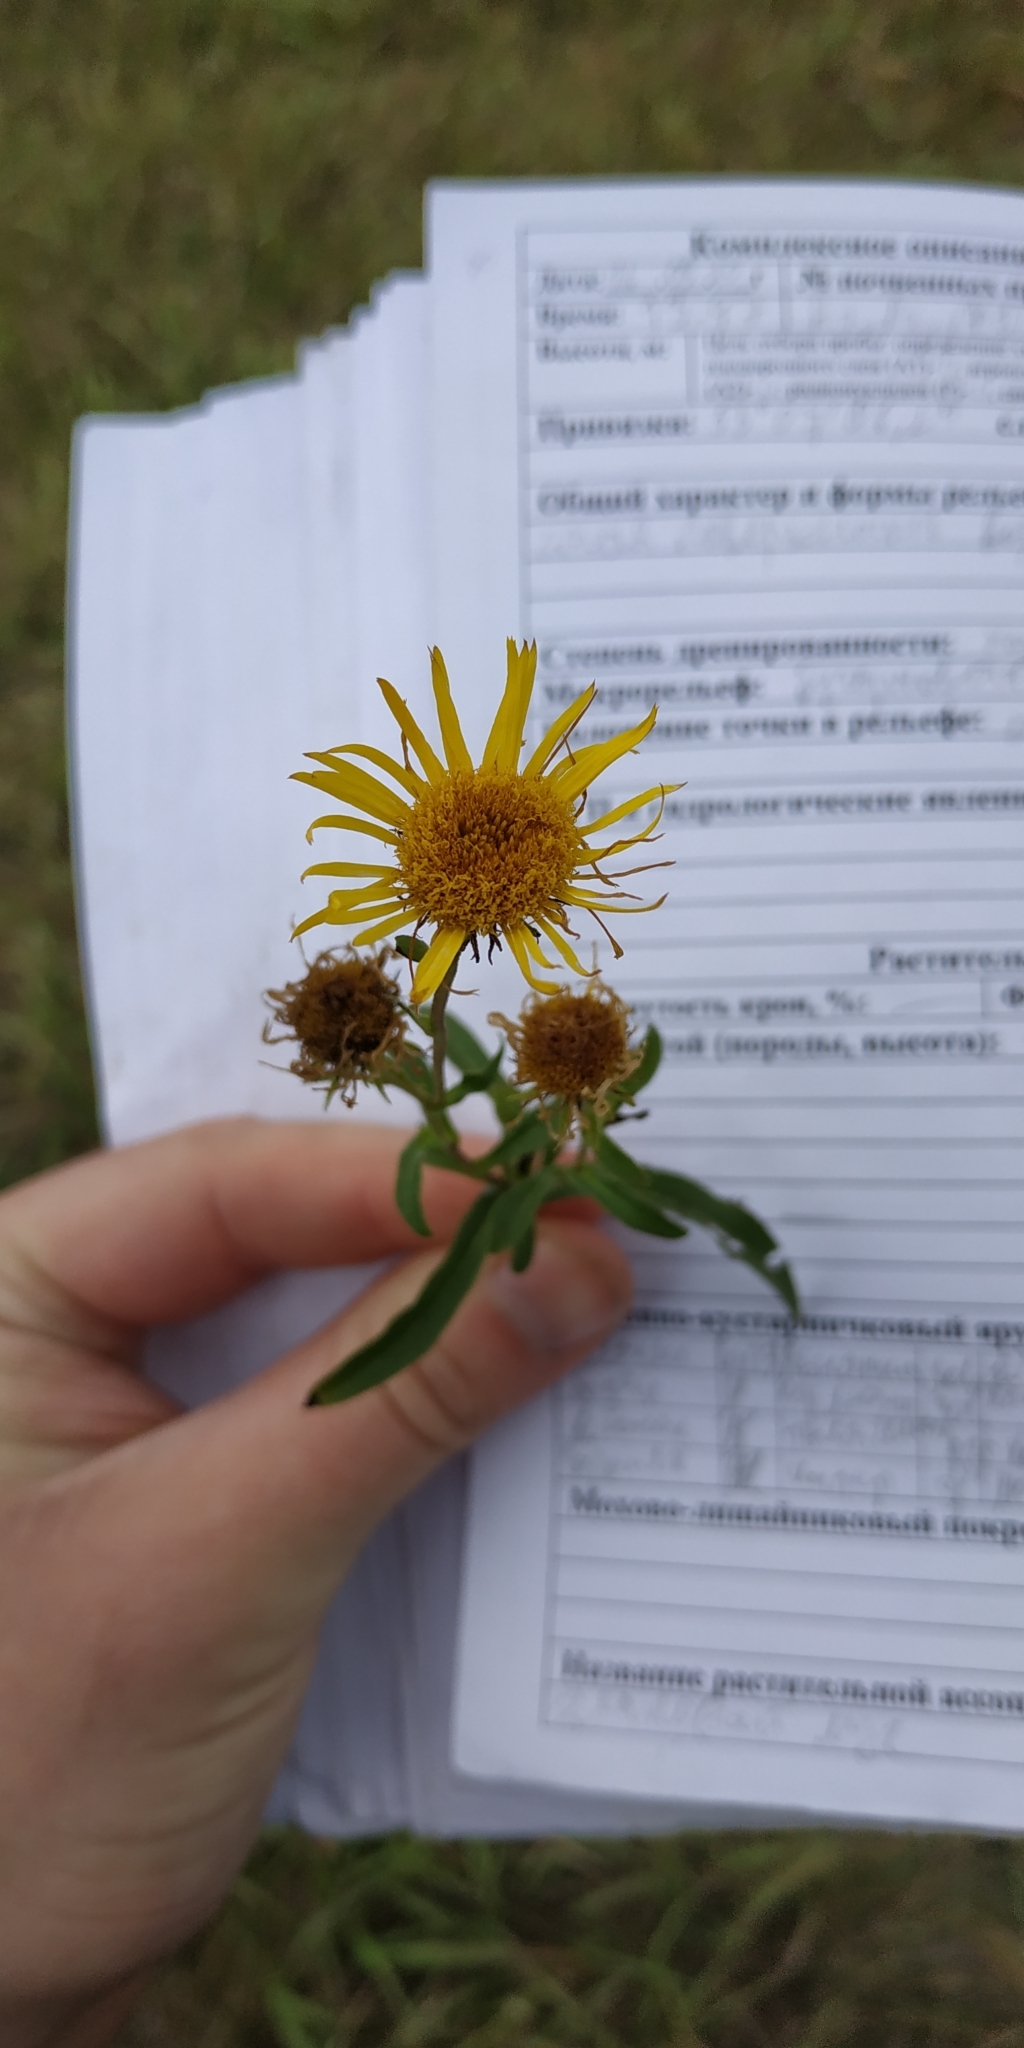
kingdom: Plantae
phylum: Tracheophyta
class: Magnoliopsida
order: Asterales
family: Asteraceae
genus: Pentanema
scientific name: Pentanema britannicum
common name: British elecampane
